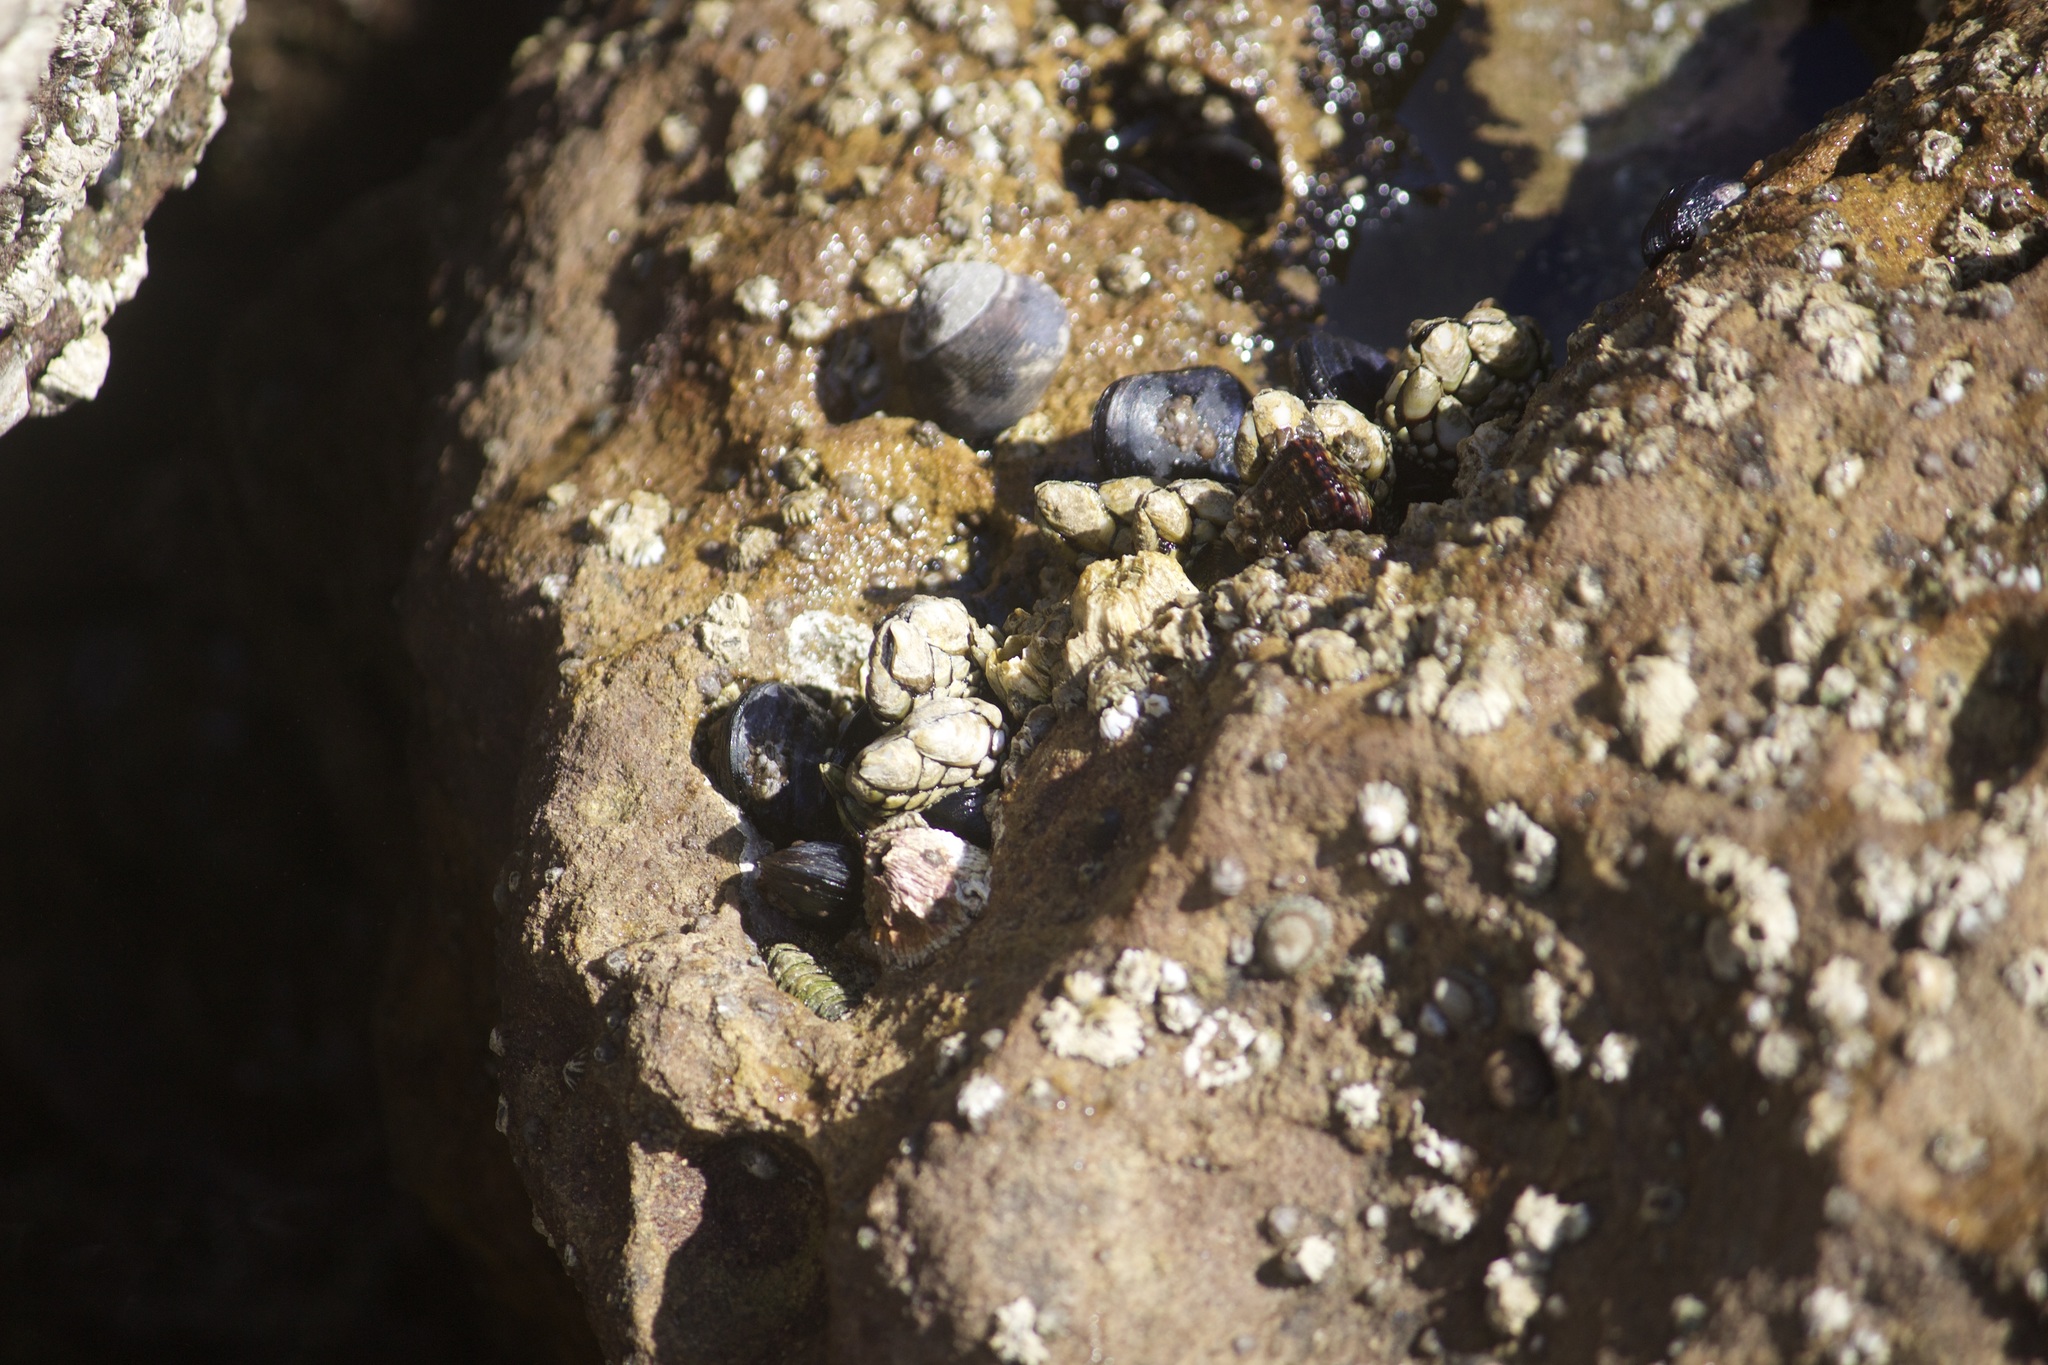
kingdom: Animalia
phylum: Arthropoda
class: Maxillopoda
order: Pedunculata
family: Pollicipedidae
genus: Pollicipes
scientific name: Pollicipes polymerus
